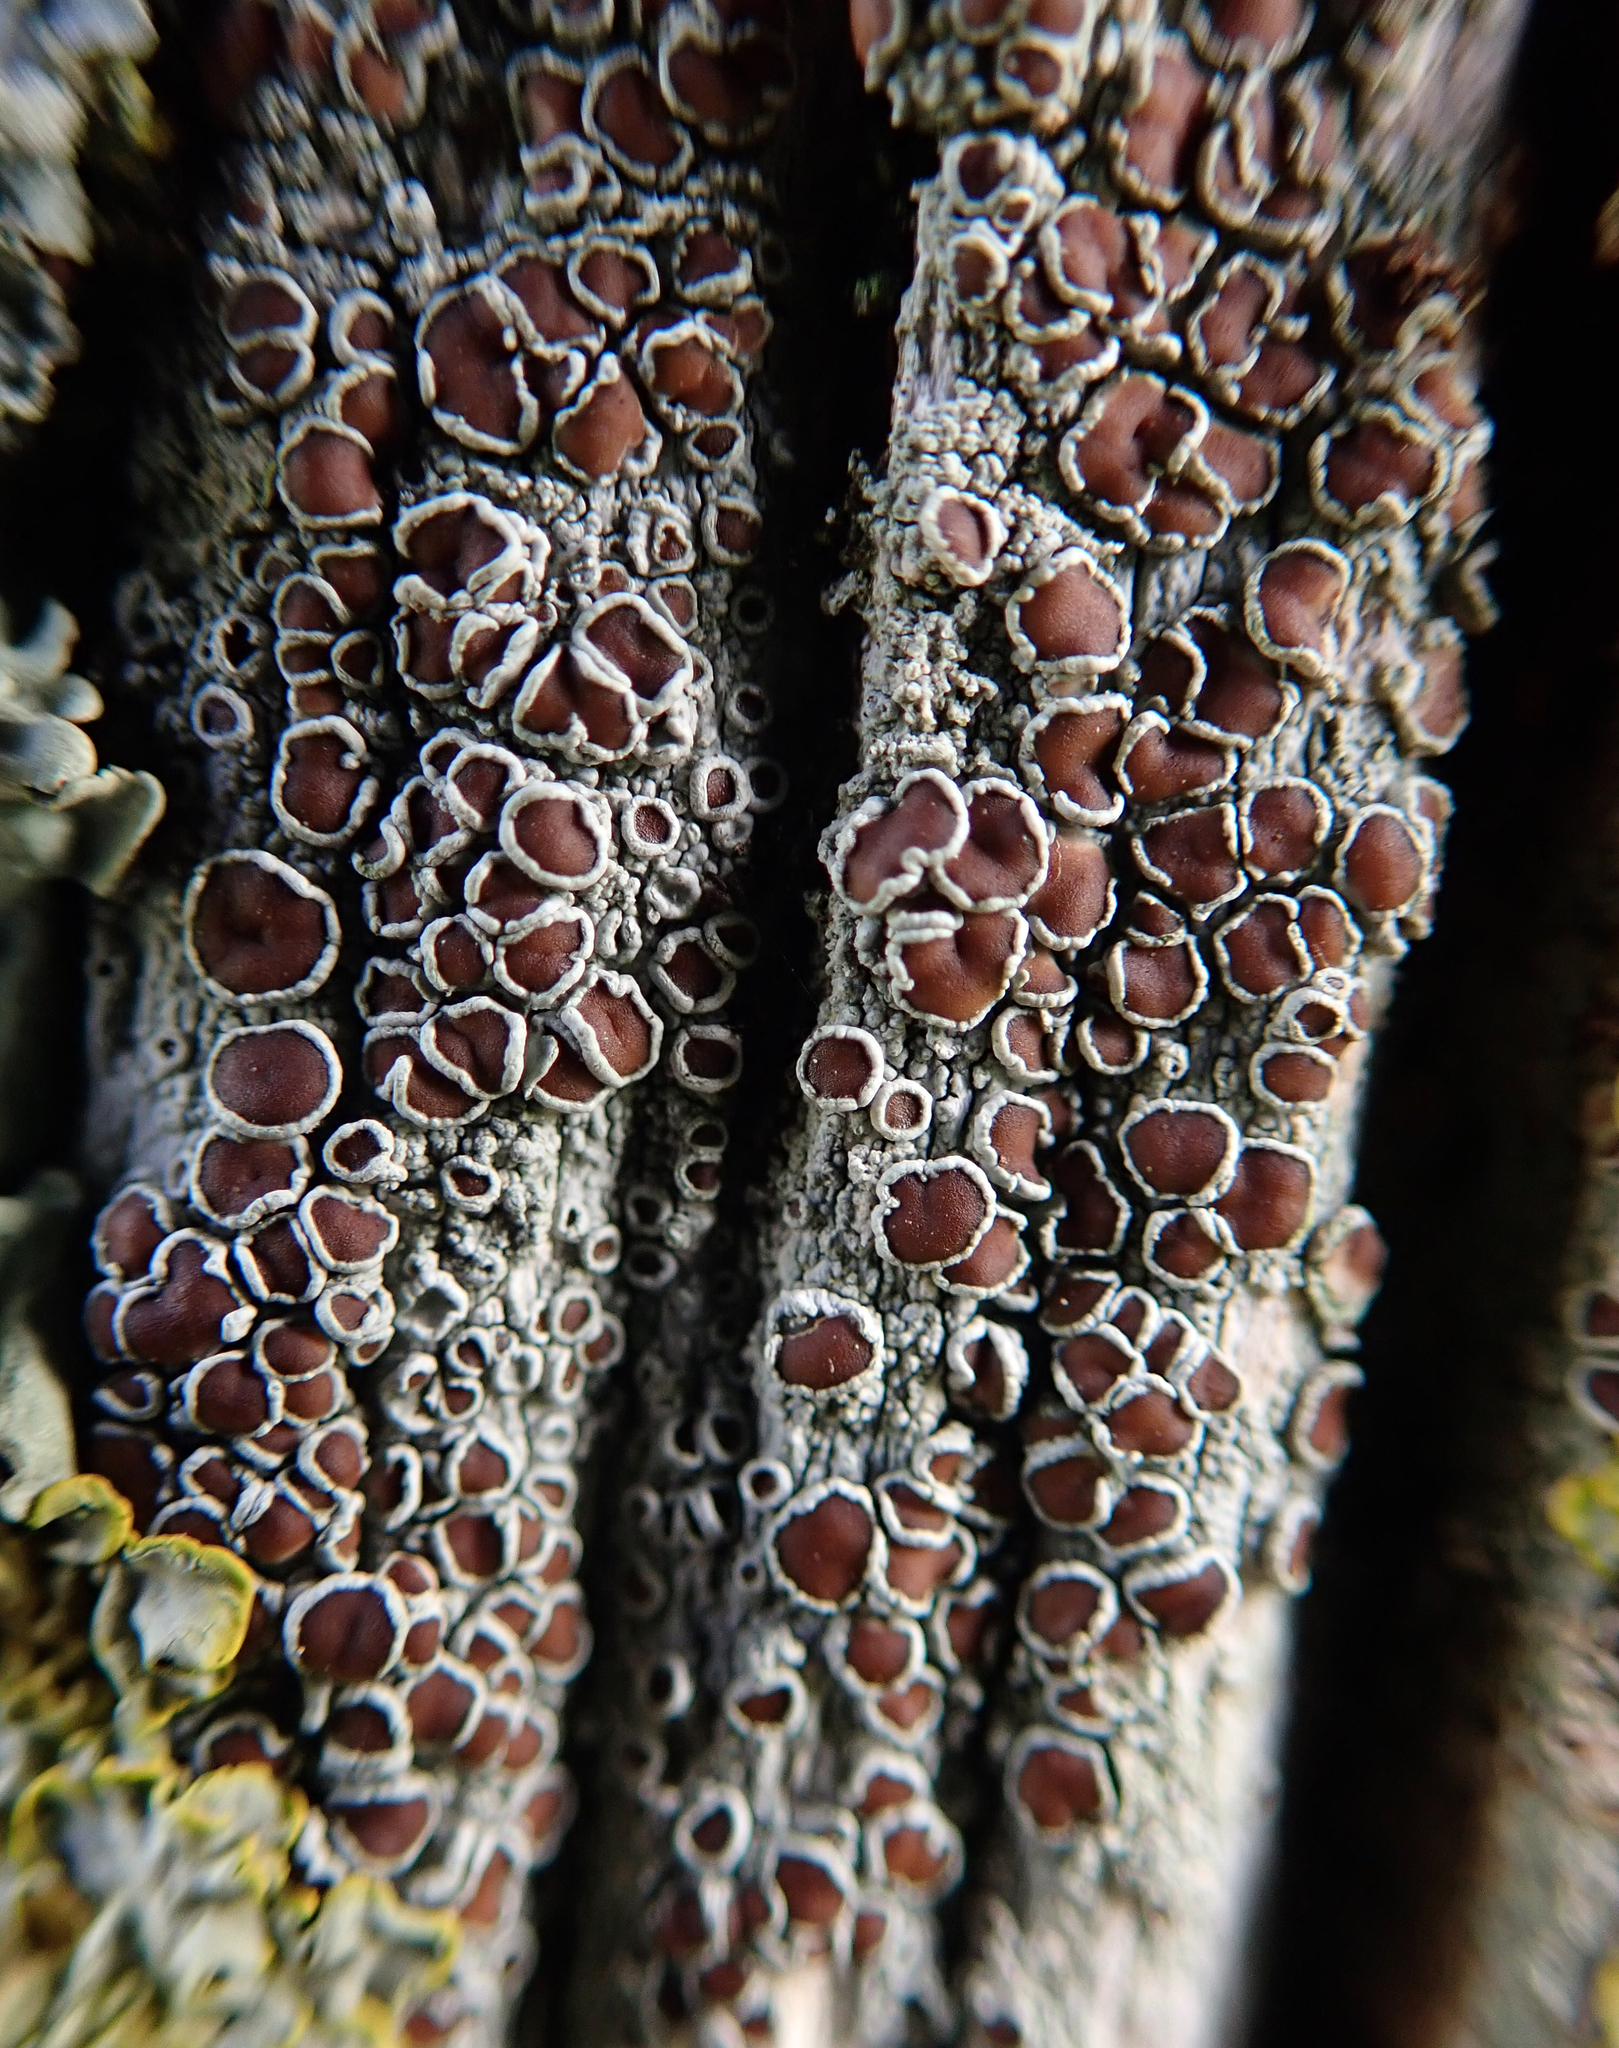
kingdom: Fungi
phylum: Ascomycota
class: Lecanoromycetes
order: Lecanorales
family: Lecanoraceae
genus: Lecanora
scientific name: Lecanora xylophila
